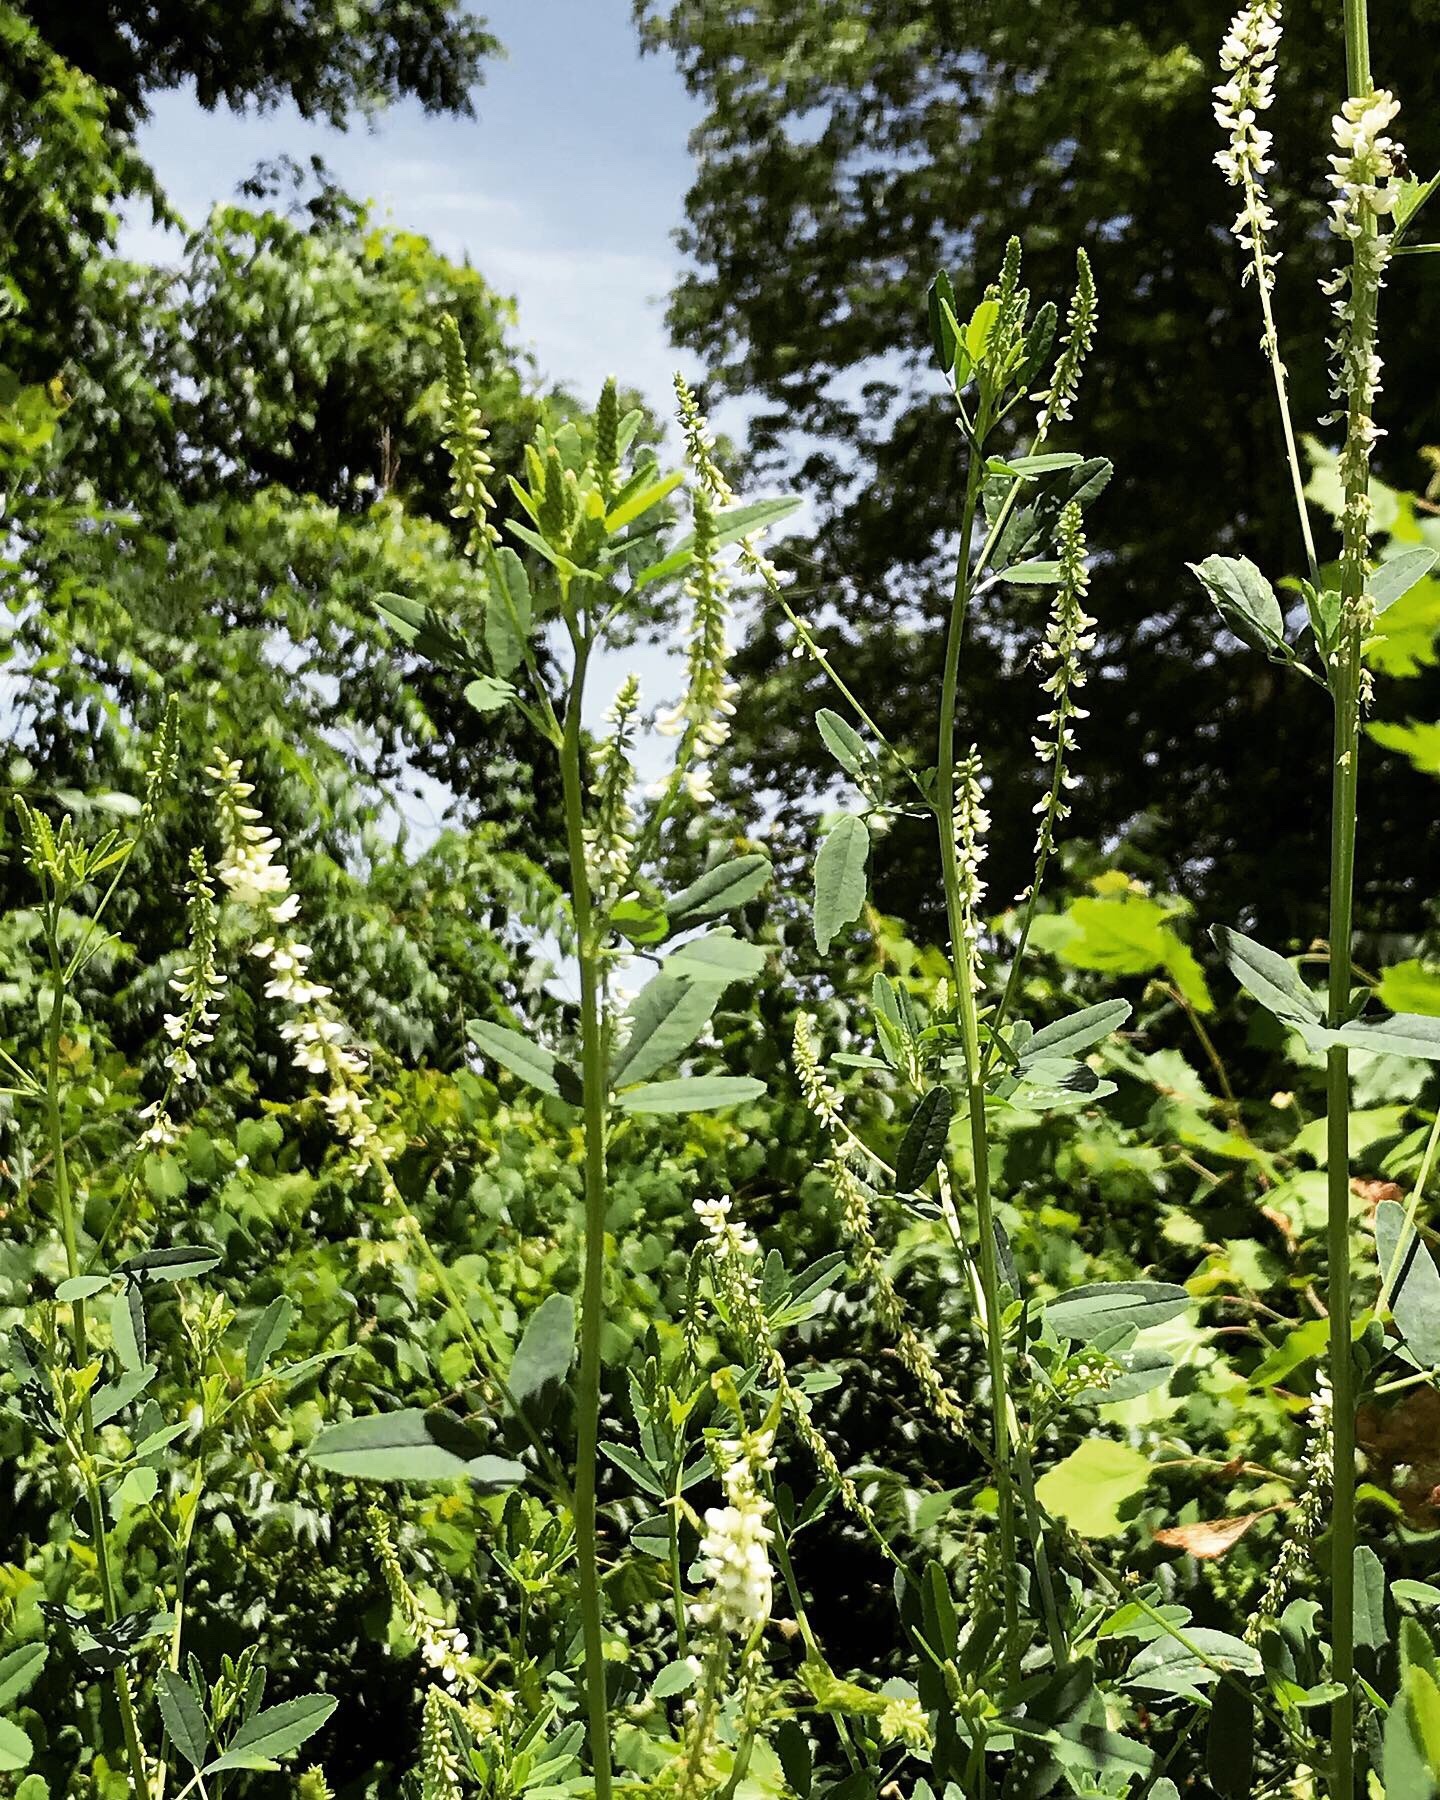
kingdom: Plantae
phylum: Tracheophyta
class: Magnoliopsida
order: Fabales
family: Fabaceae
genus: Melilotus
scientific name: Melilotus albus
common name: White melilot
